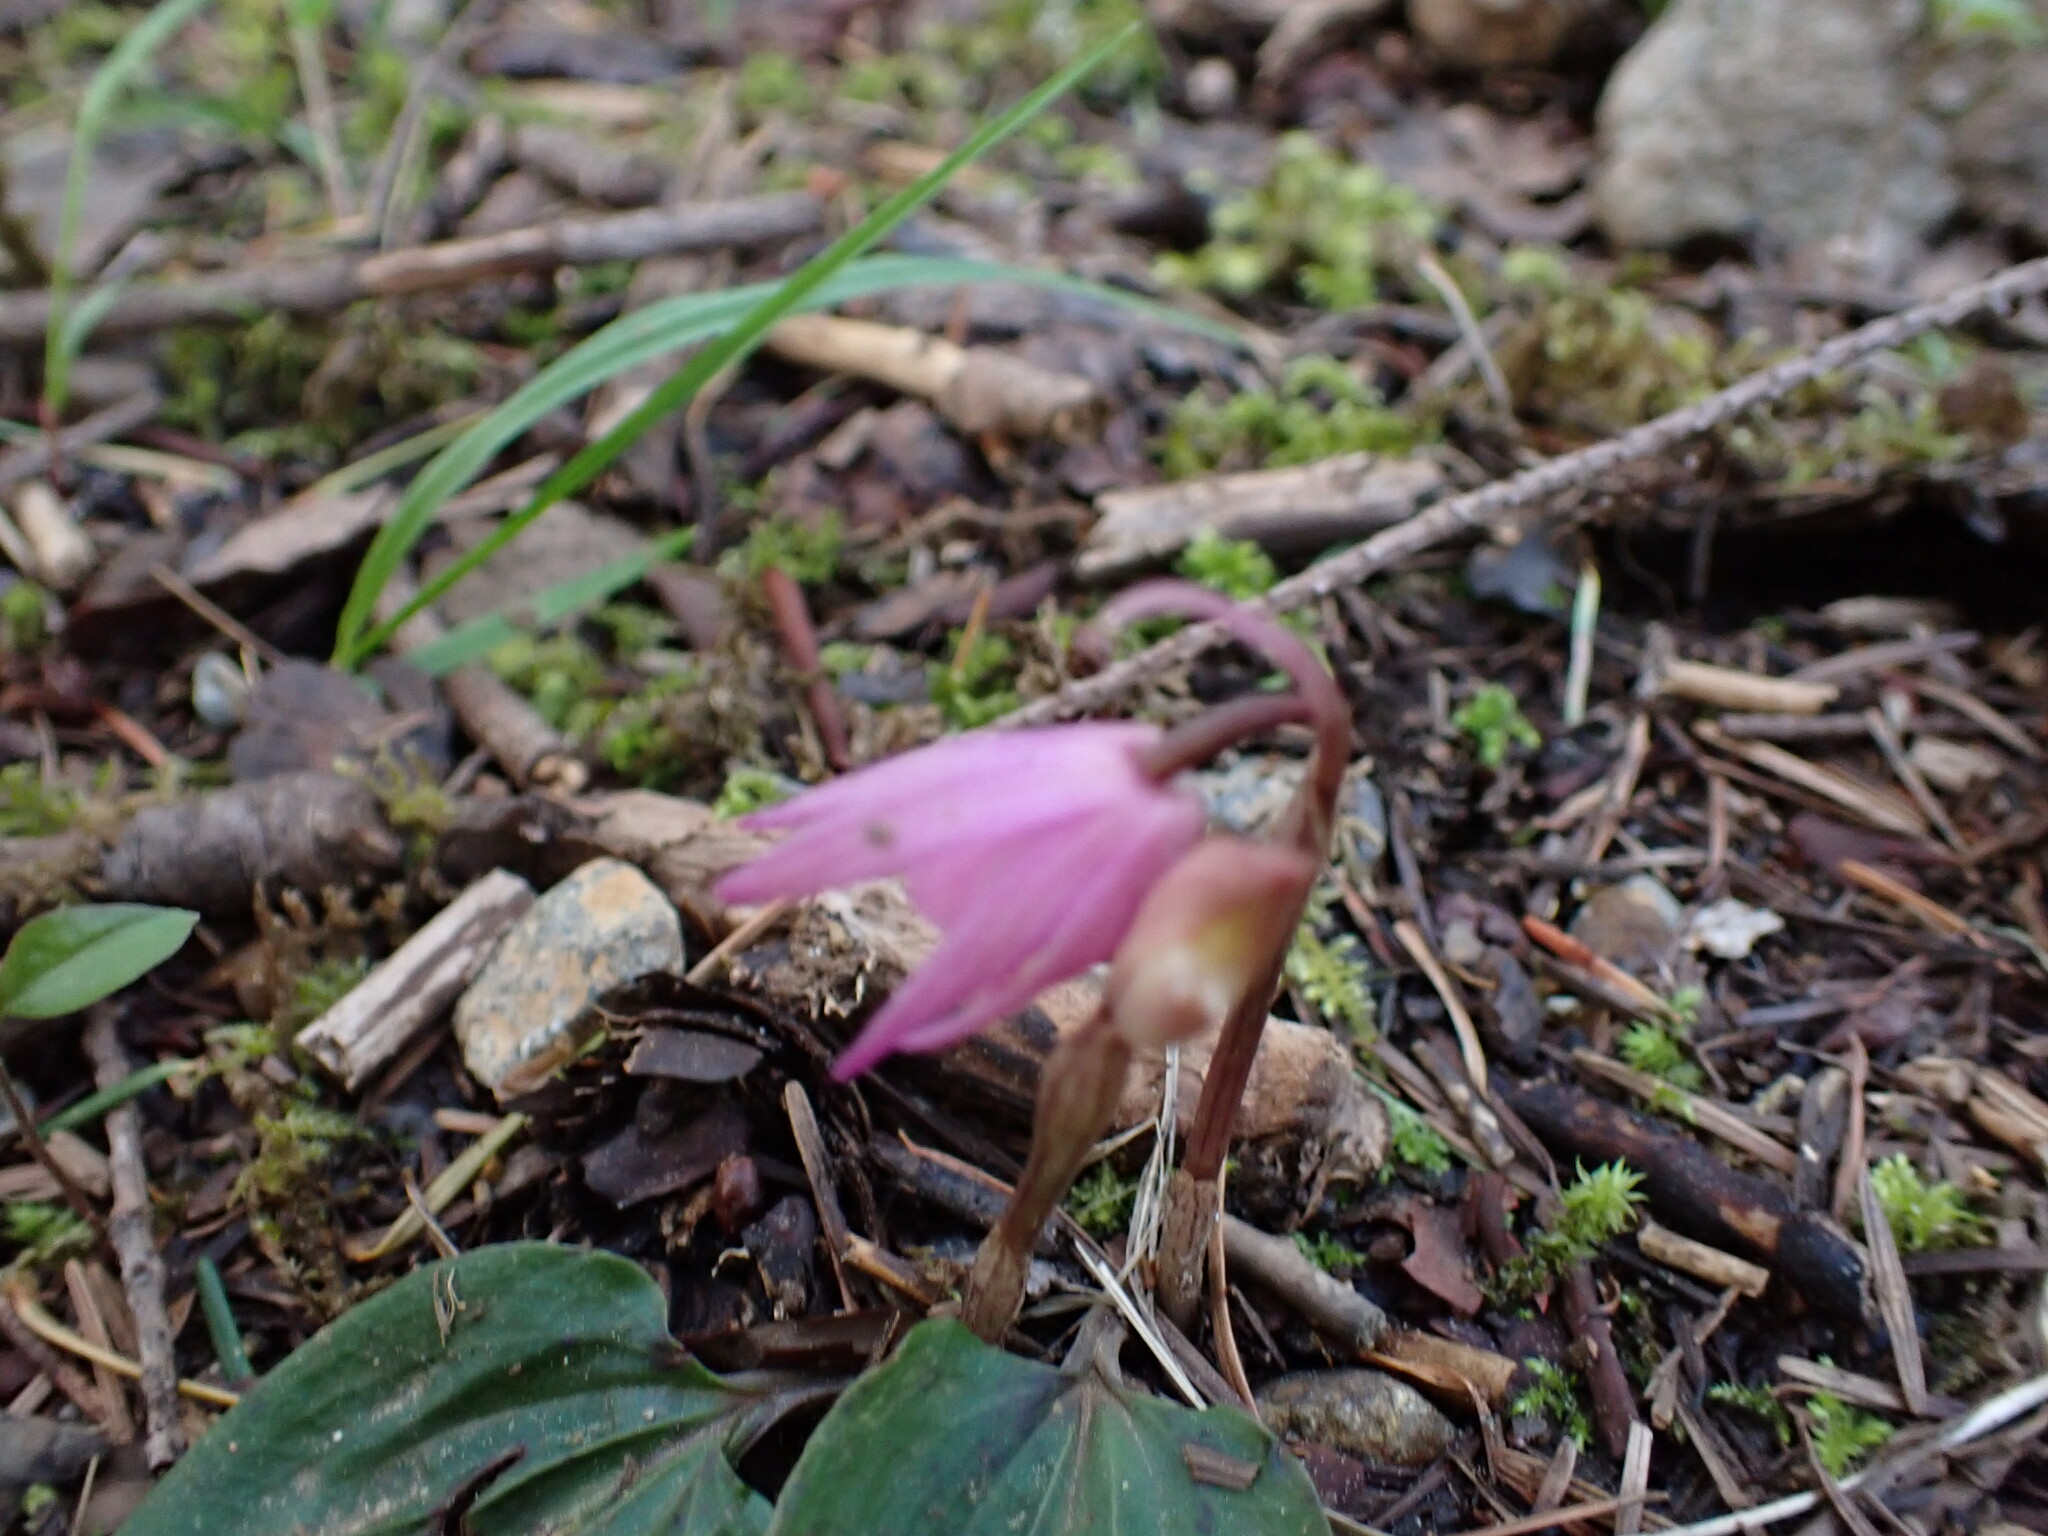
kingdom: Plantae
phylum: Tracheophyta
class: Liliopsida
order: Asparagales
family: Orchidaceae
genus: Calypso
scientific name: Calypso bulbosa
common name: Calypso
